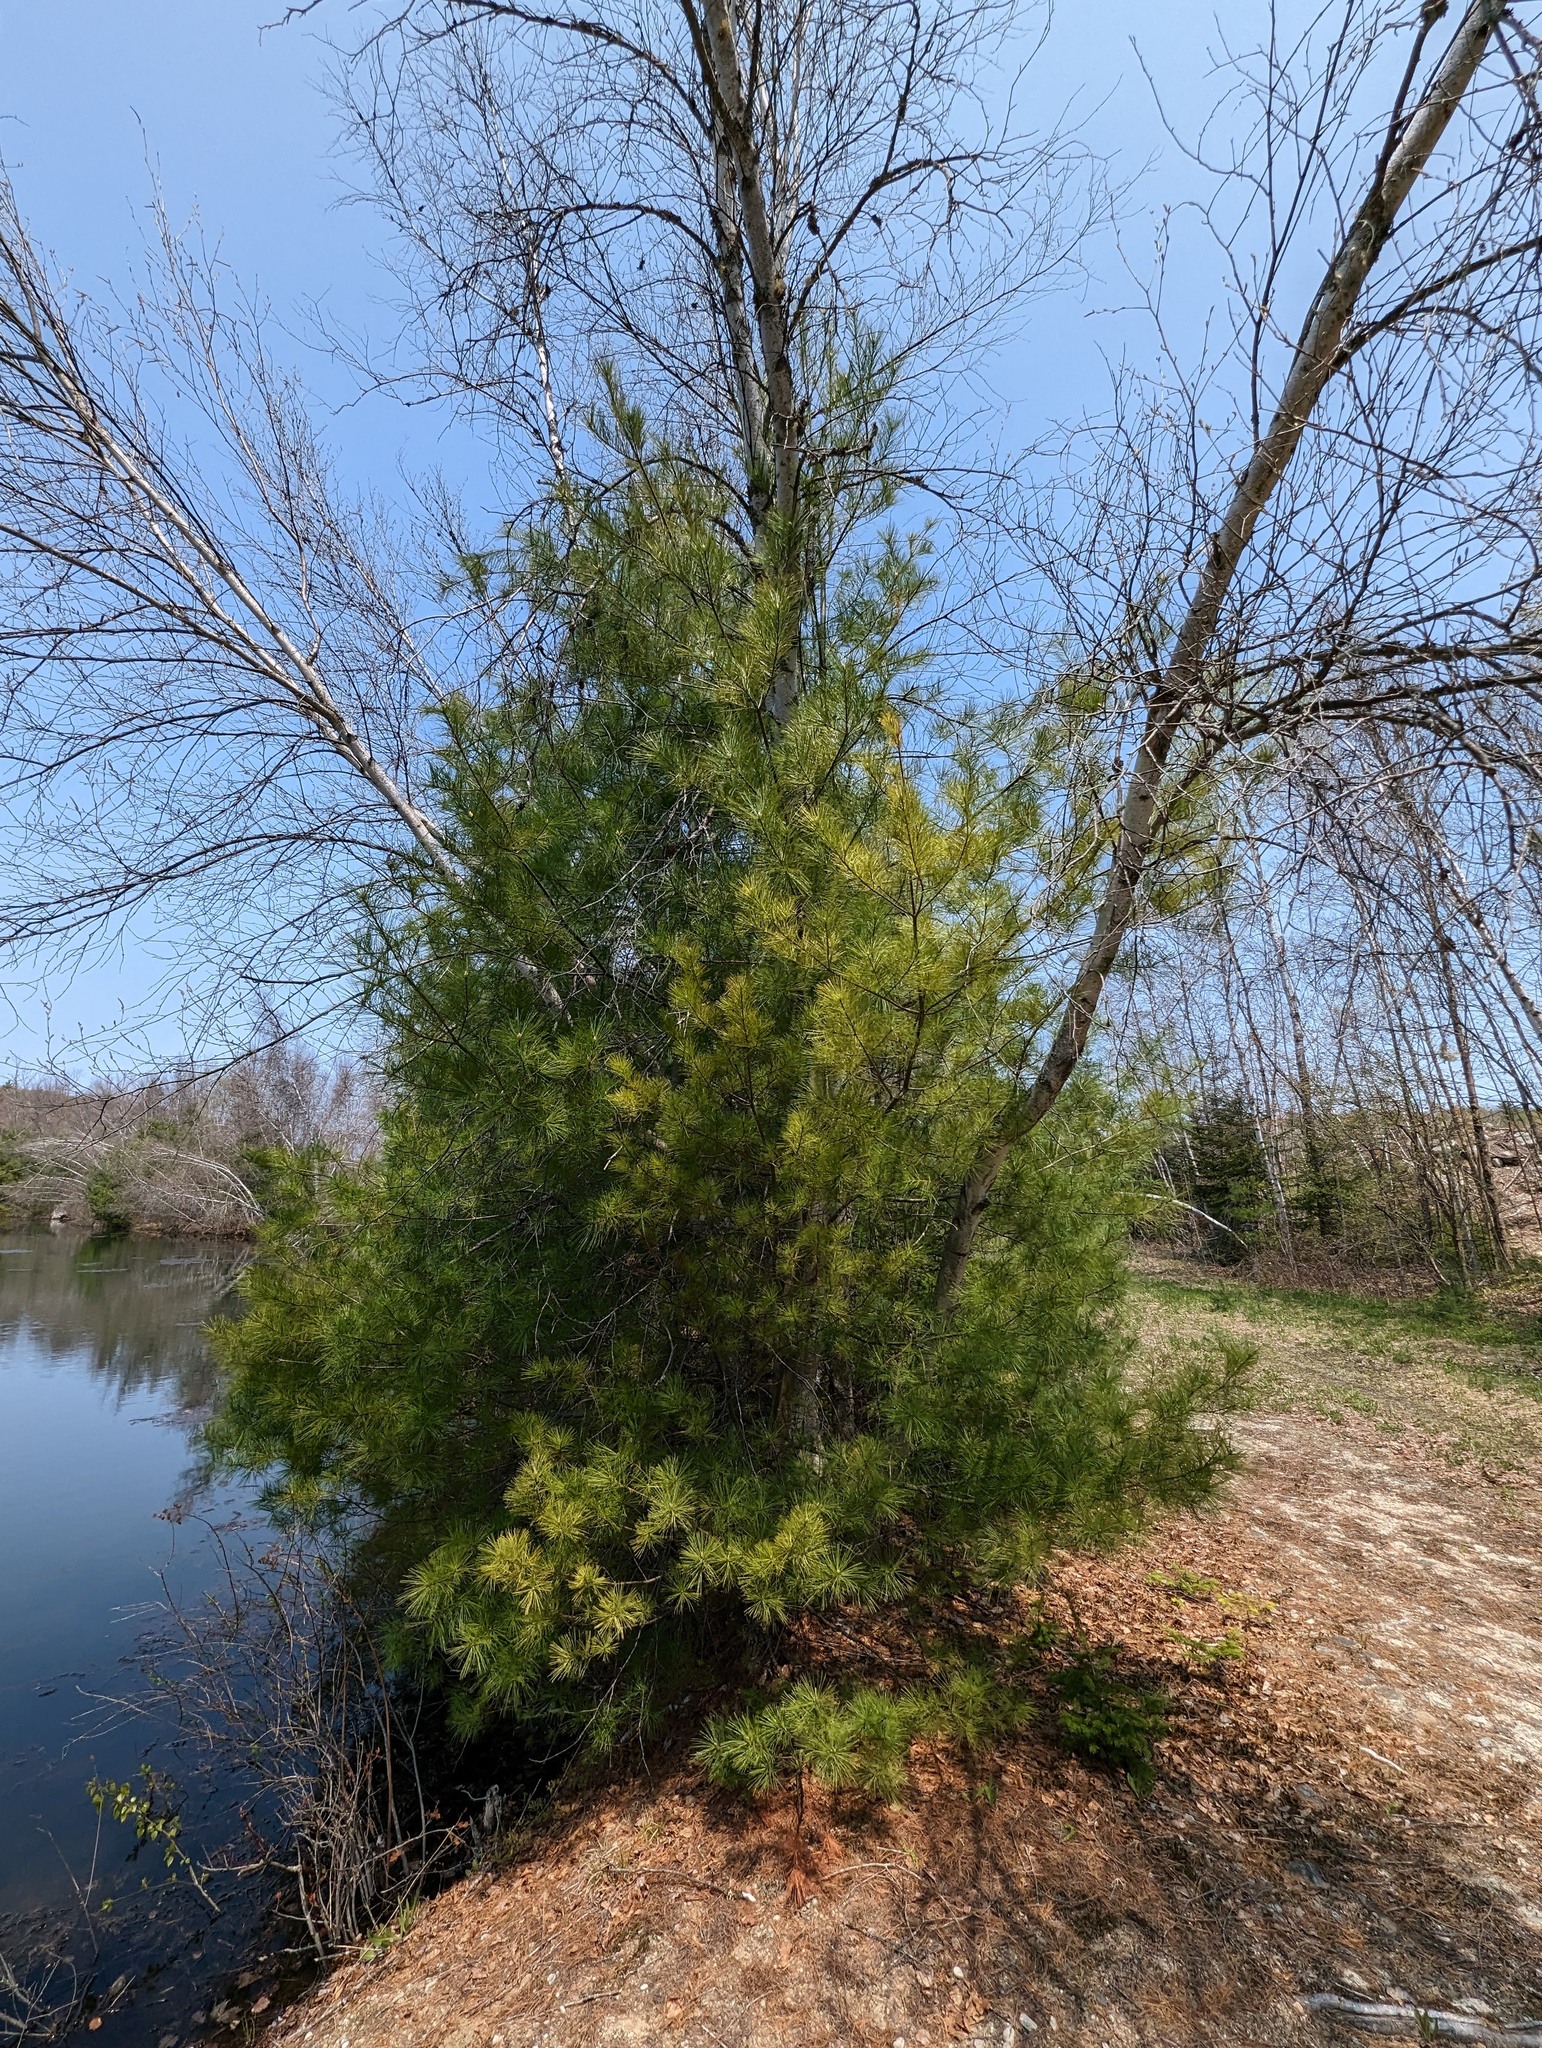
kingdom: Plantae
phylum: Tracheophyta
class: Pinopsida
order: Pinales
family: Pinaceae
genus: Pinus
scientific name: Pinus strobus
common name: Weymouth pine
